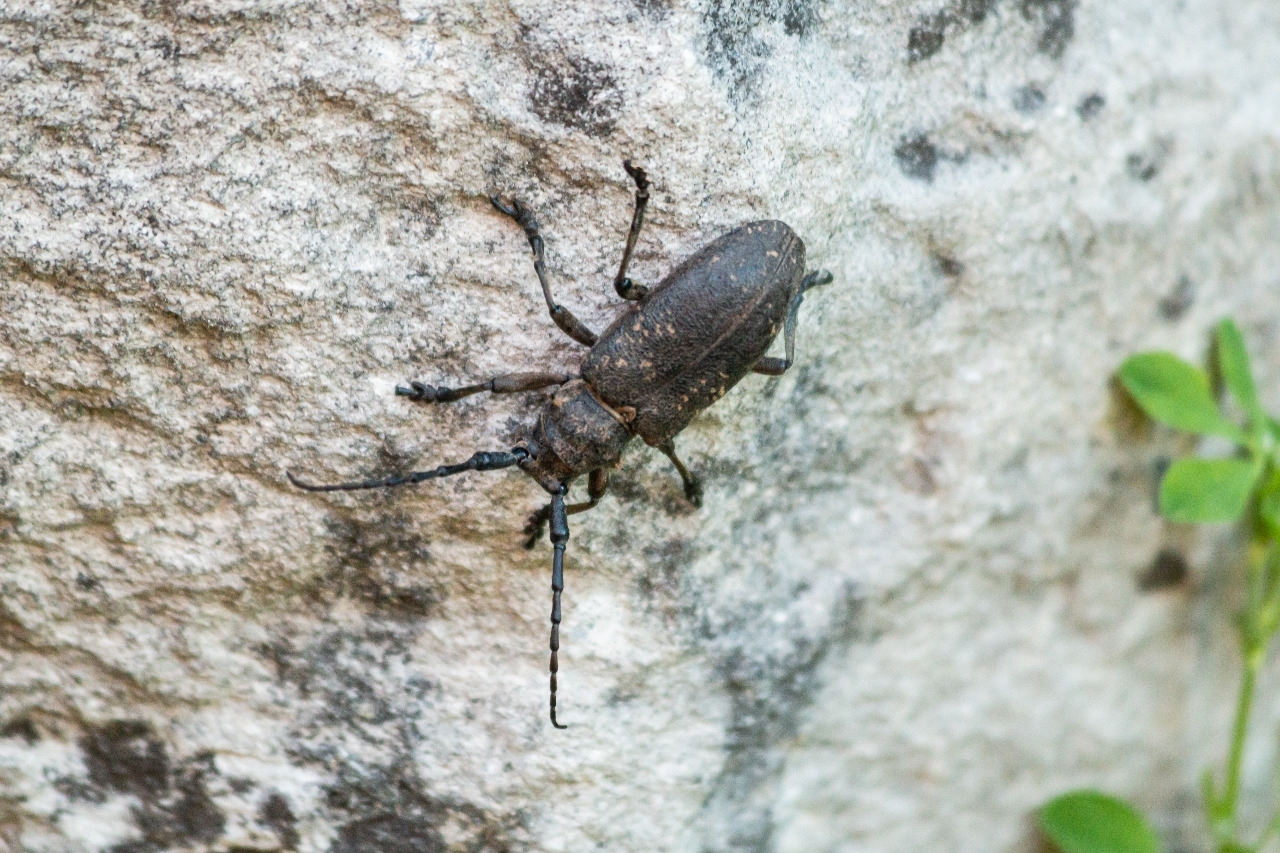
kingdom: Animalia
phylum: Arthropoda
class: Insecta
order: Coleoptera
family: Cerambycidae
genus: Lamia
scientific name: Lamia textor
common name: Weaver beetle
